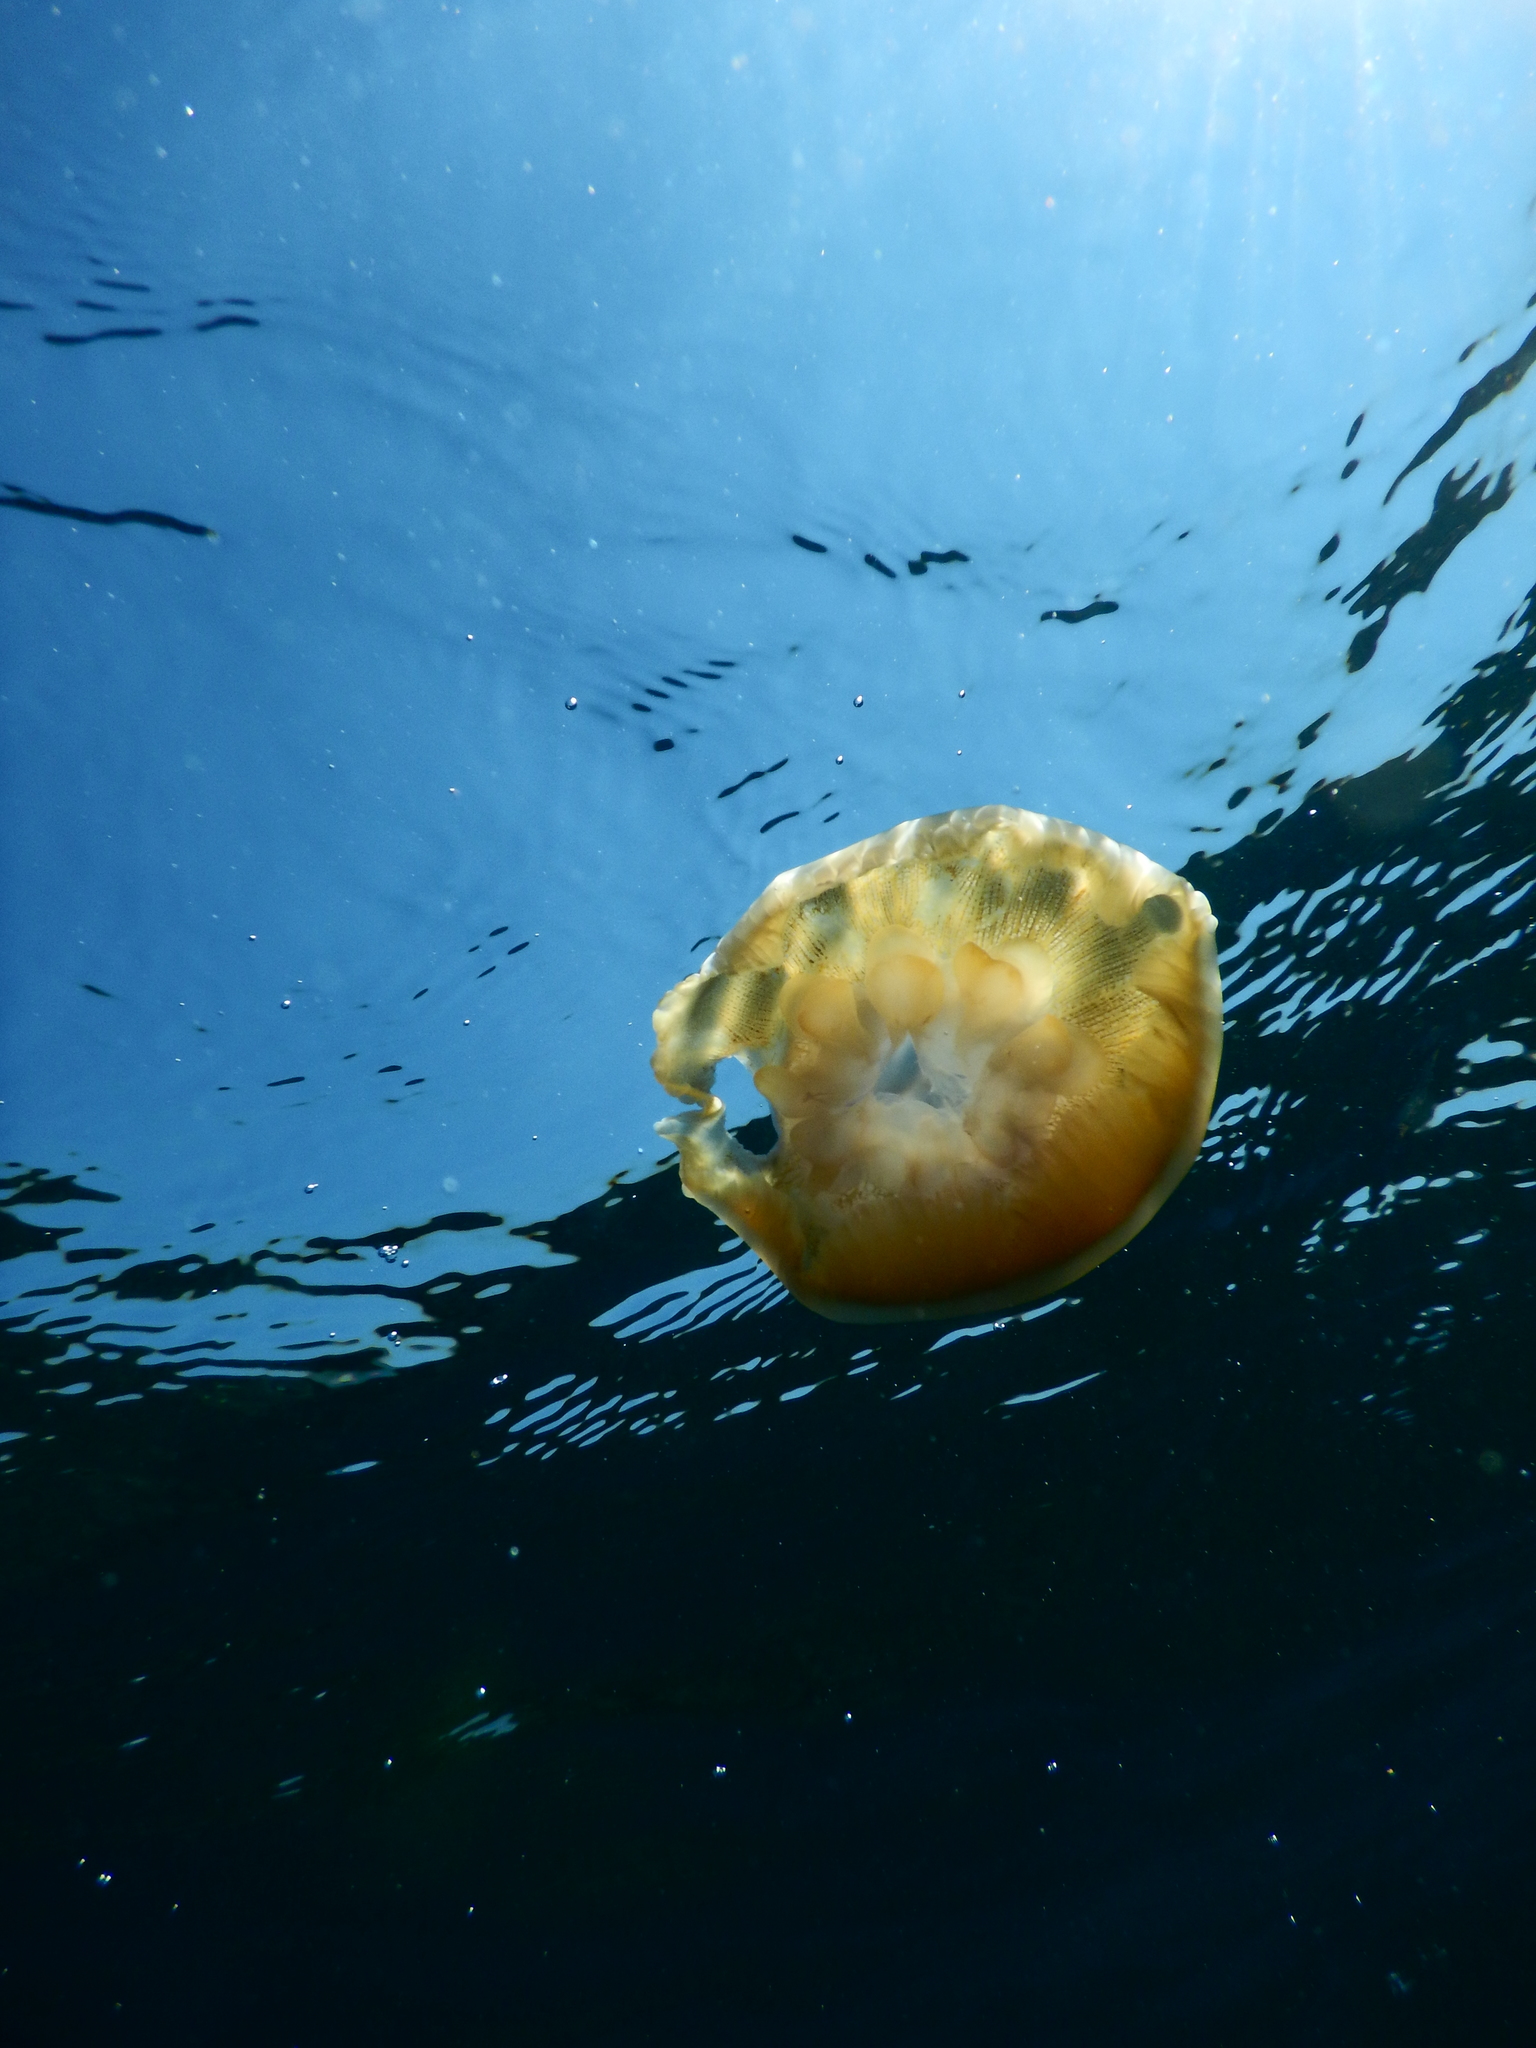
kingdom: Animalia
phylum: Cnidaria
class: Scyphozoa
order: Rhizostomeae
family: Cepheidae
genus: Cotylorhiza
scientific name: Cotylorhiza tuberculata
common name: Mediterranean jelly
